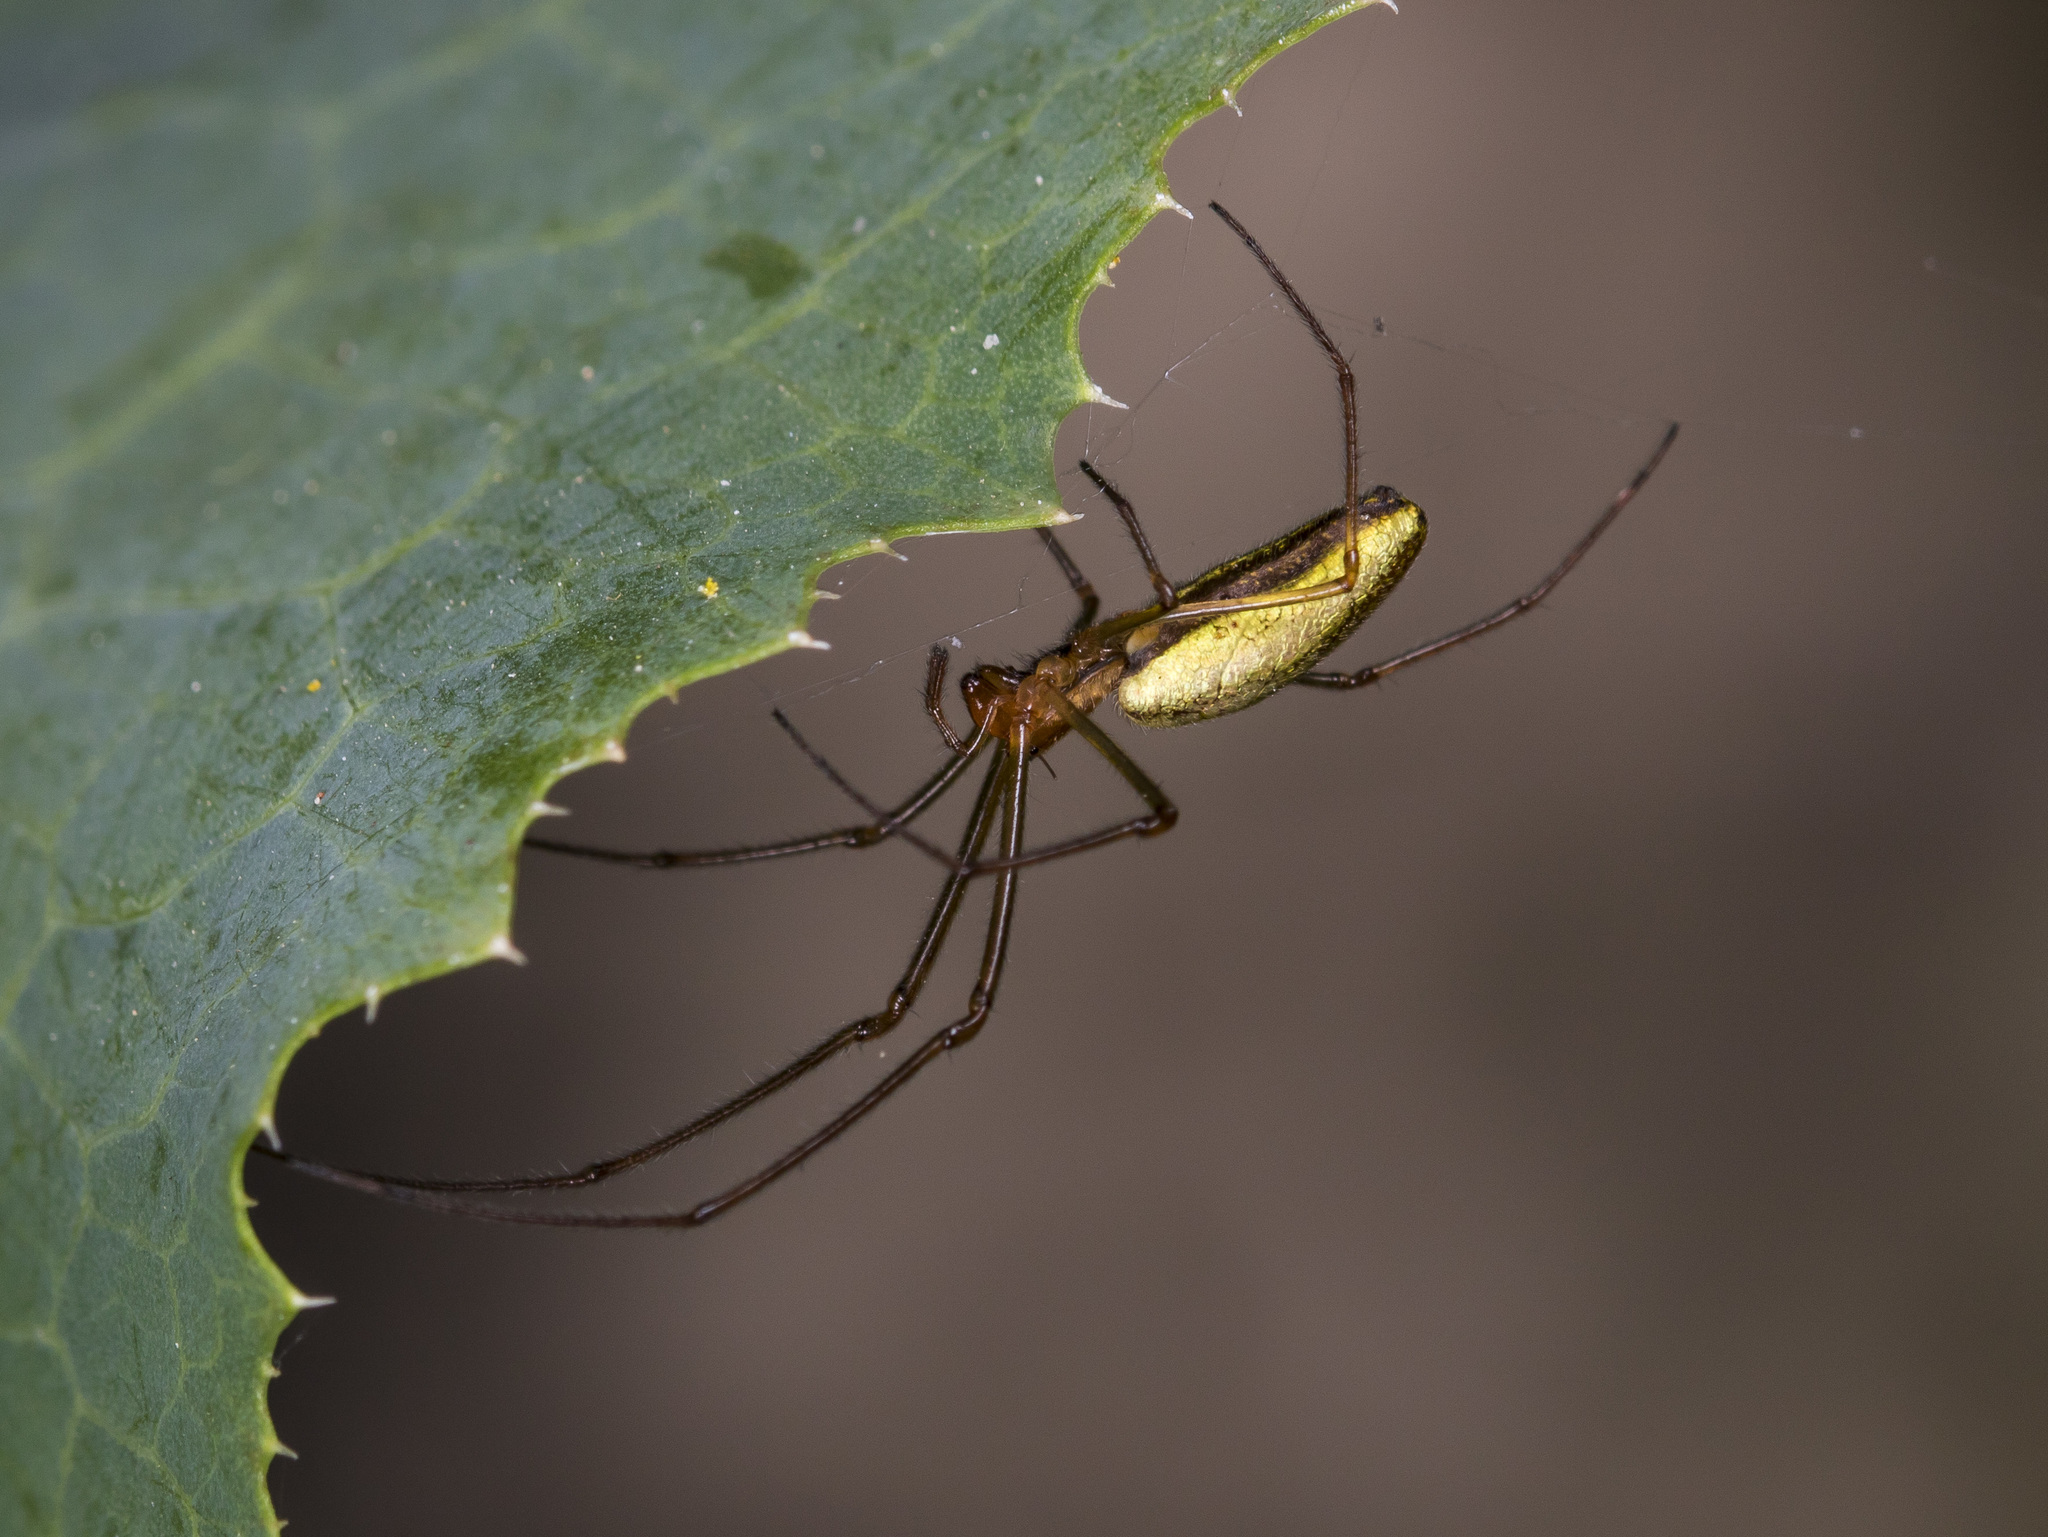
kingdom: Animalia
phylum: Arthropoda
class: Arachnida
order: Araneae
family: Tetragnathidae
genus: Tetragnatha
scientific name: Tetragnatha pinicola
